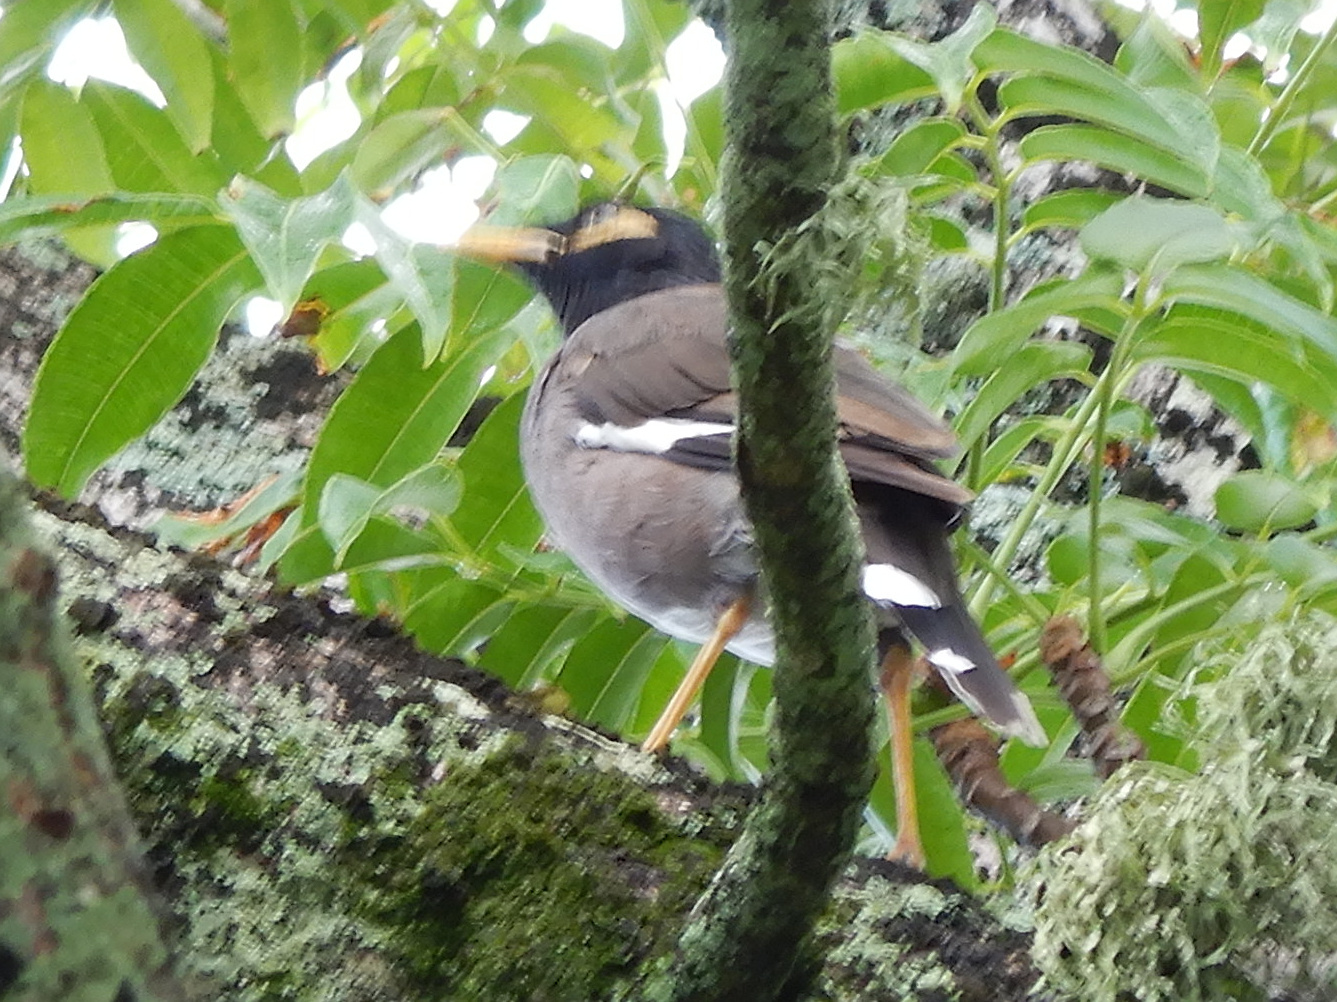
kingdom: Animalia
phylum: Chordata
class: Aves
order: Passeriformes
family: Sturnidae
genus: Acridotheres
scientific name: Acridotheres tristis
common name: Common myna
